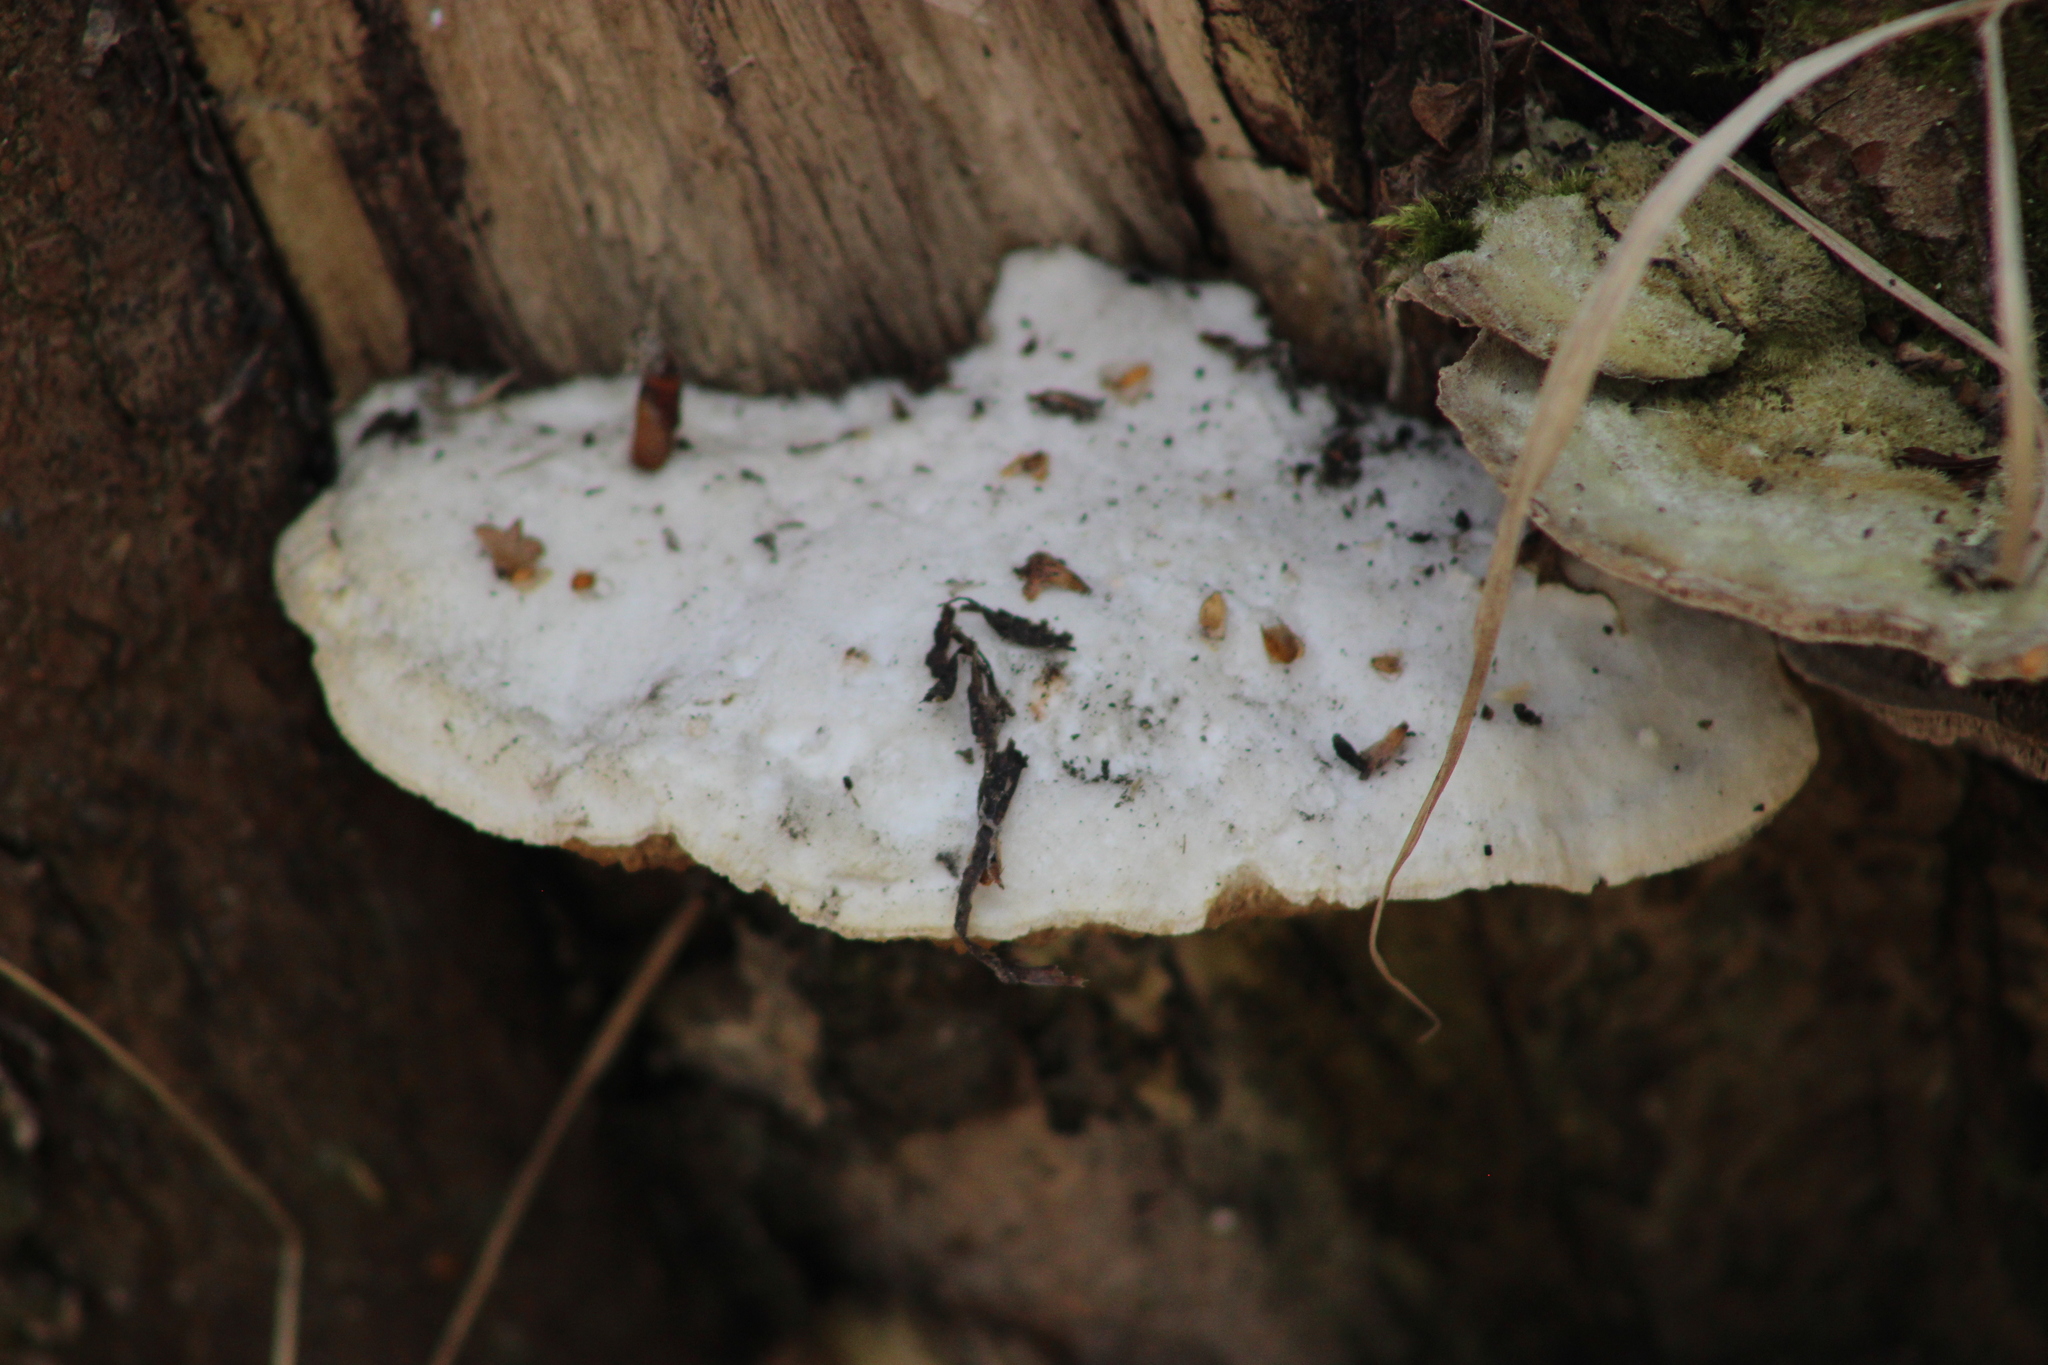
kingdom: Fungi
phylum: Basidiomycota
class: Agaricomycetes
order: Polyporales
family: Cerrenaceae
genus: Cerrena
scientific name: Cerrena unicolor
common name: Mossy maze polypore
